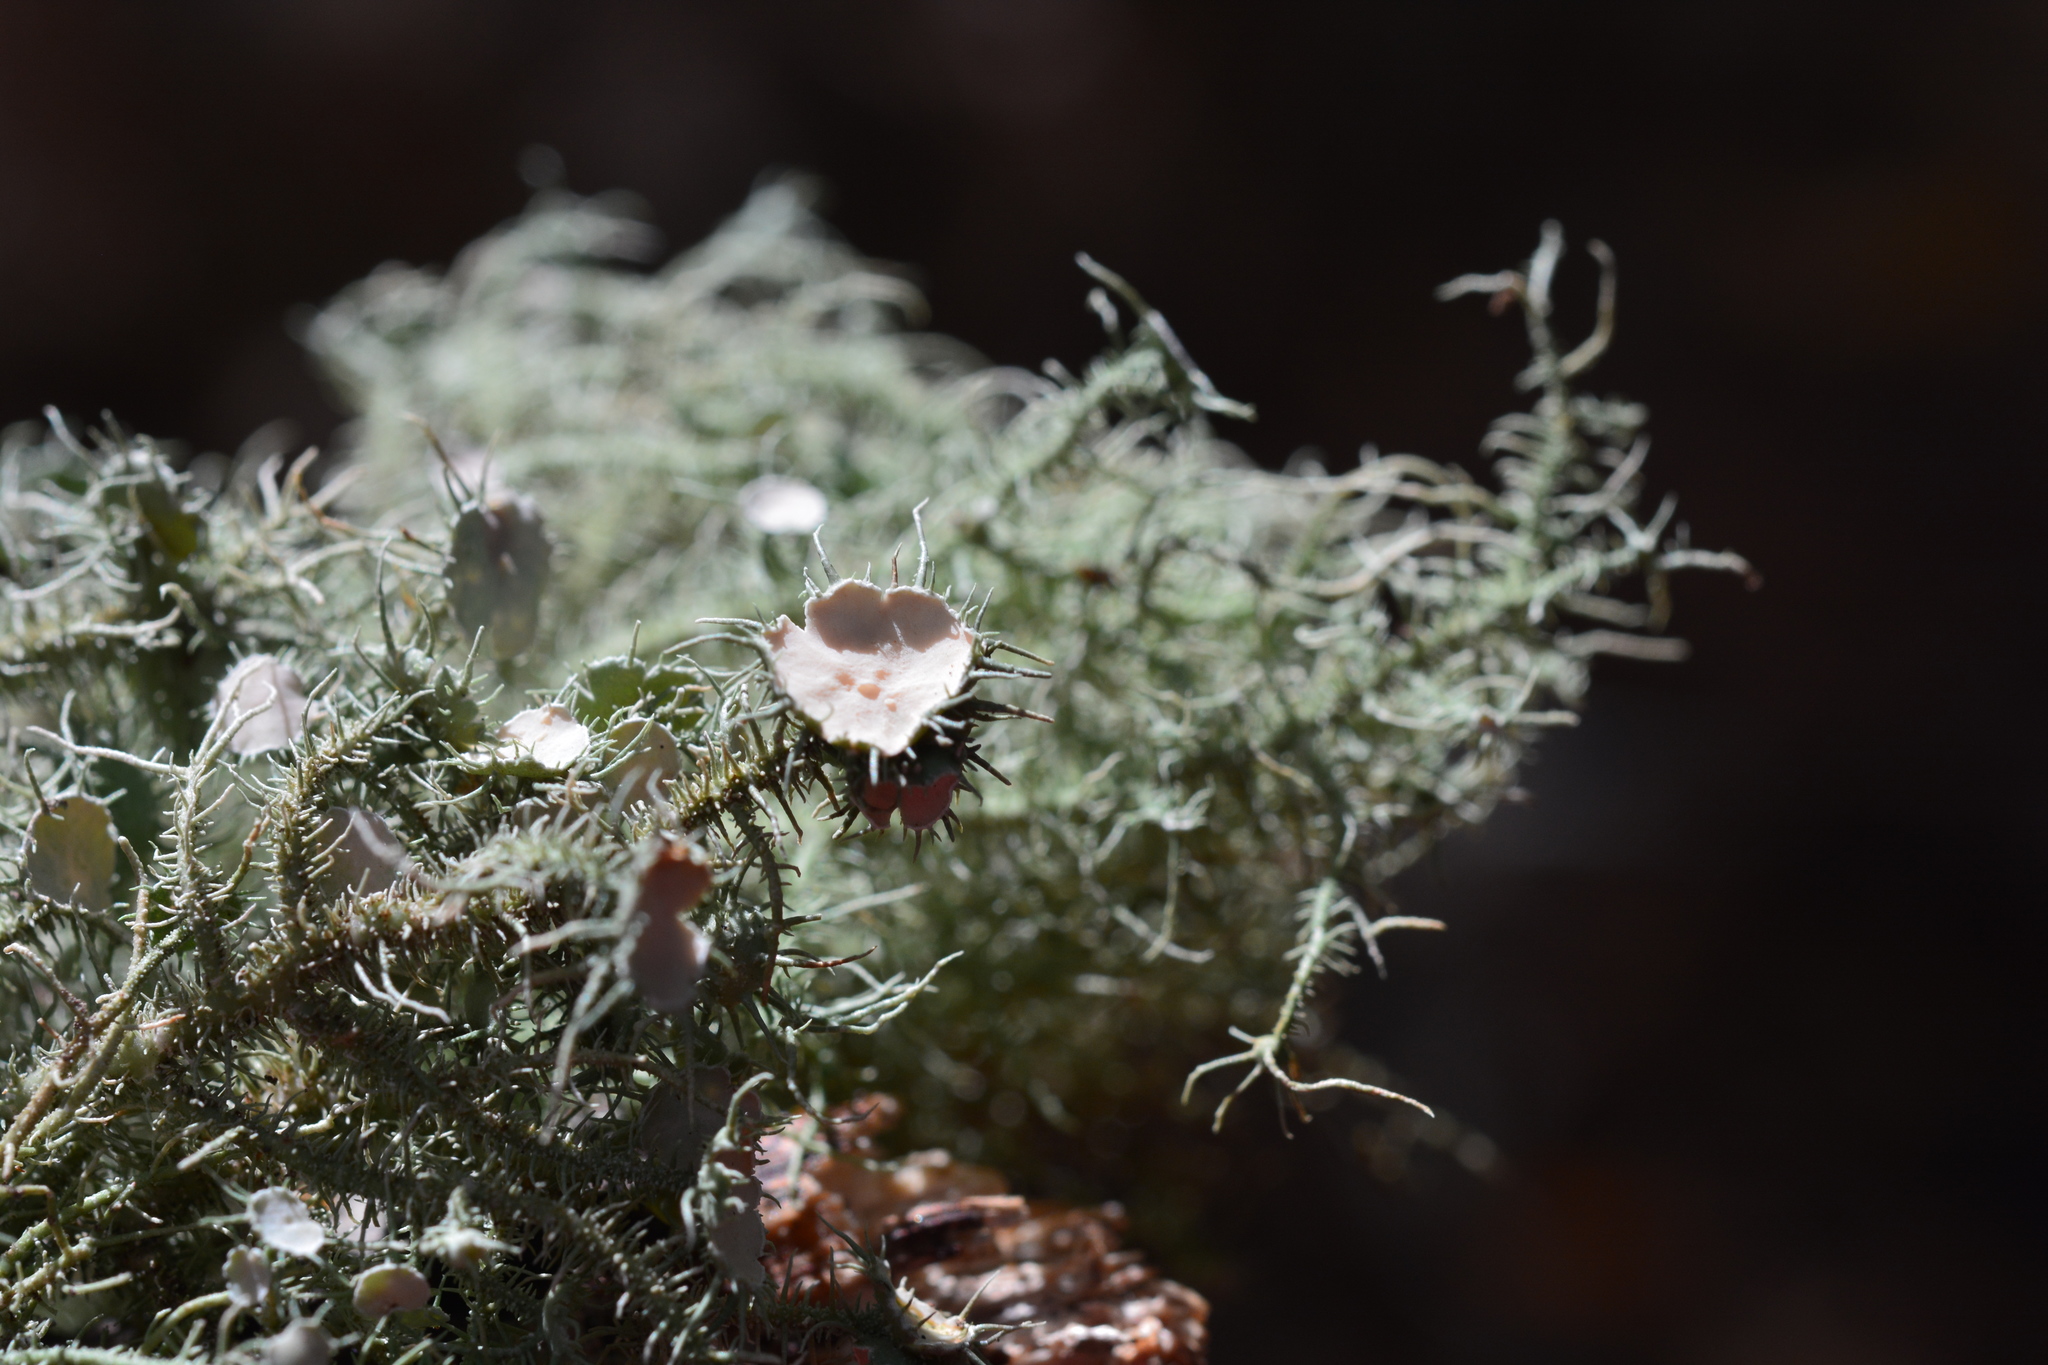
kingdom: Fungi
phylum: Ascomycota
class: Lecanoromycetes
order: Lecanorales
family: Parmeliaceae
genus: Usnea
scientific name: Usnea strigosa
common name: Bushy beard lichen
